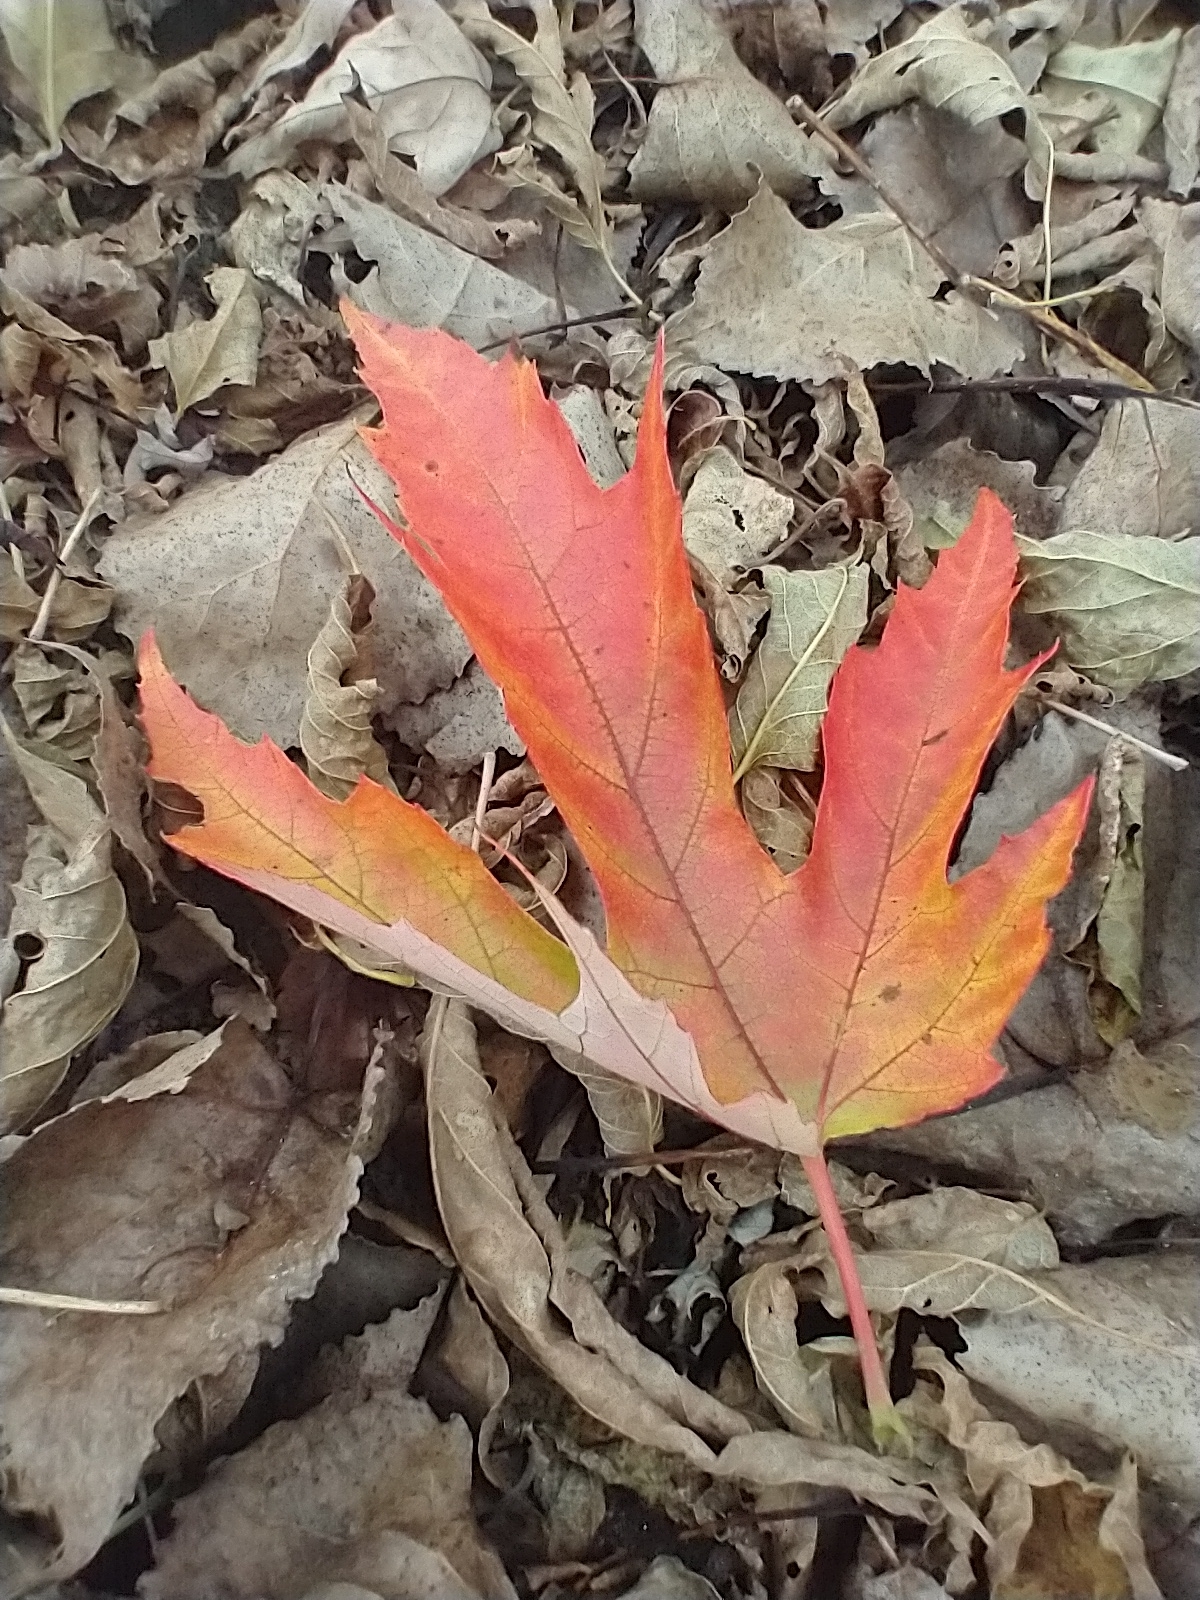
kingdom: Plantae
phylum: Tracheophyta
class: Magnoliopsida
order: Sapindales
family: Sapindaceae
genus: Acer
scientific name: Acer saccharinum
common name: Silver maple
